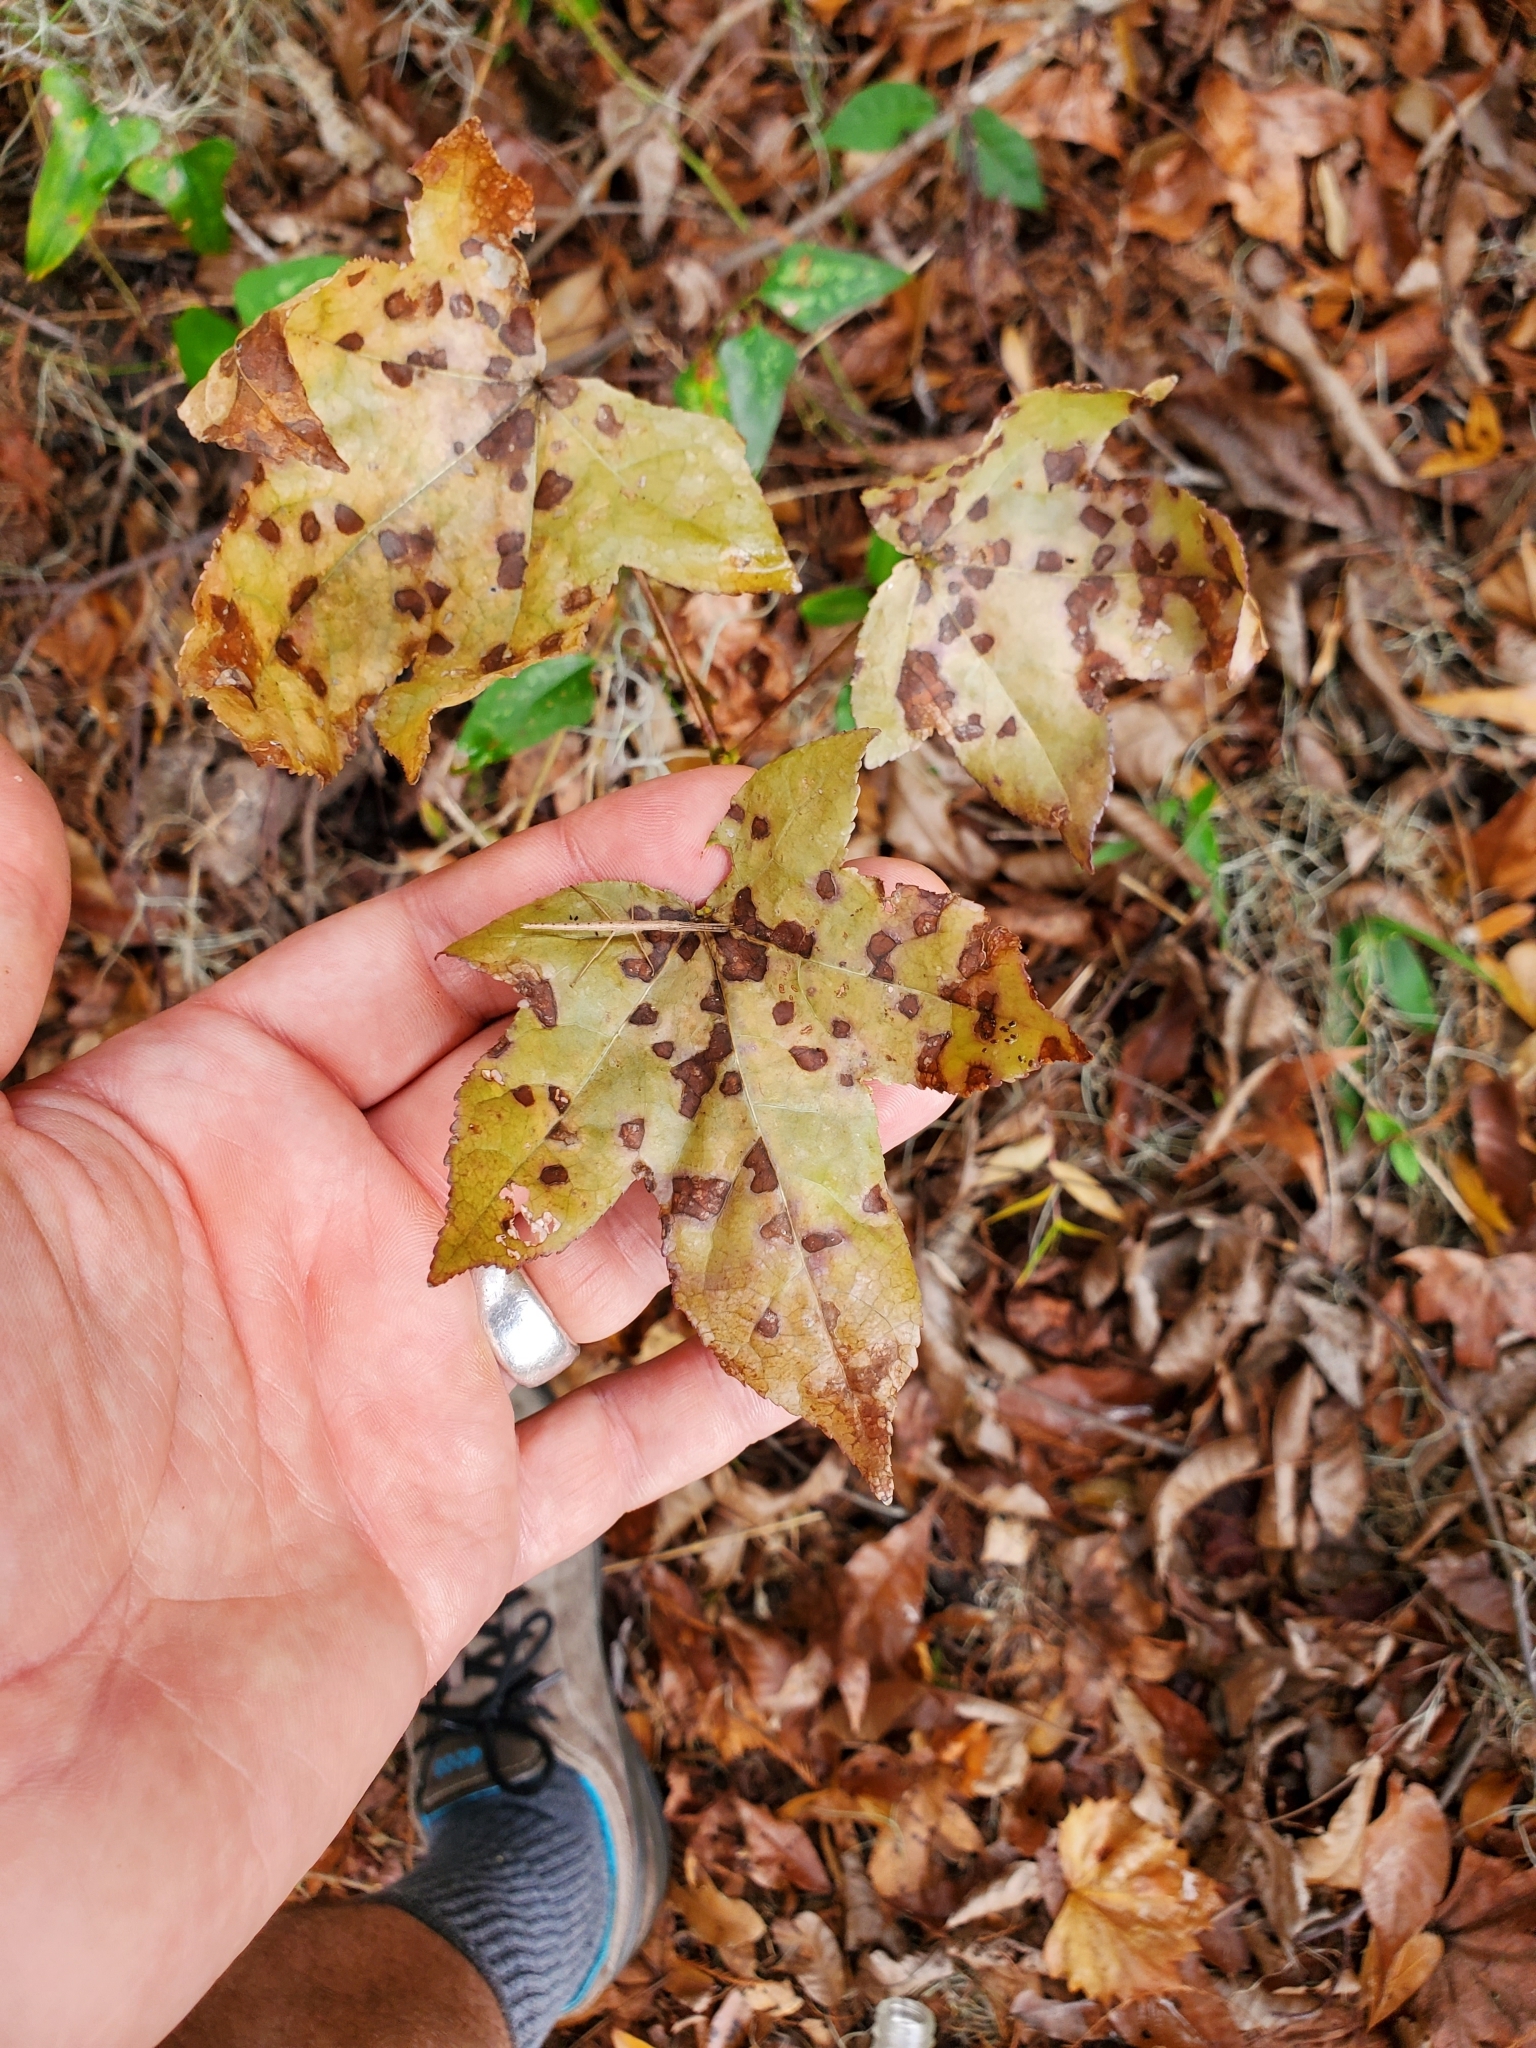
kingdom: Animalia
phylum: Arthropoda
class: Insecta
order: Phasmida
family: Pseudophasmatidae
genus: Anisomorpha
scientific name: Anisomorpha buprestoides
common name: Florida stick insect
